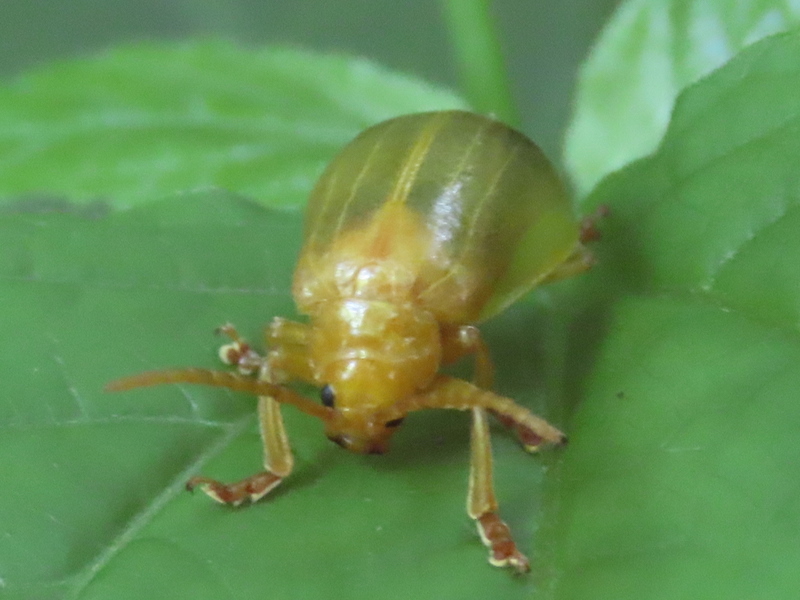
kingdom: Animalia
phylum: Arthropoda
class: Insecta
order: Coleoptera
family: Chrysomelidae
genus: Monocesta
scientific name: Monocesta coryli
